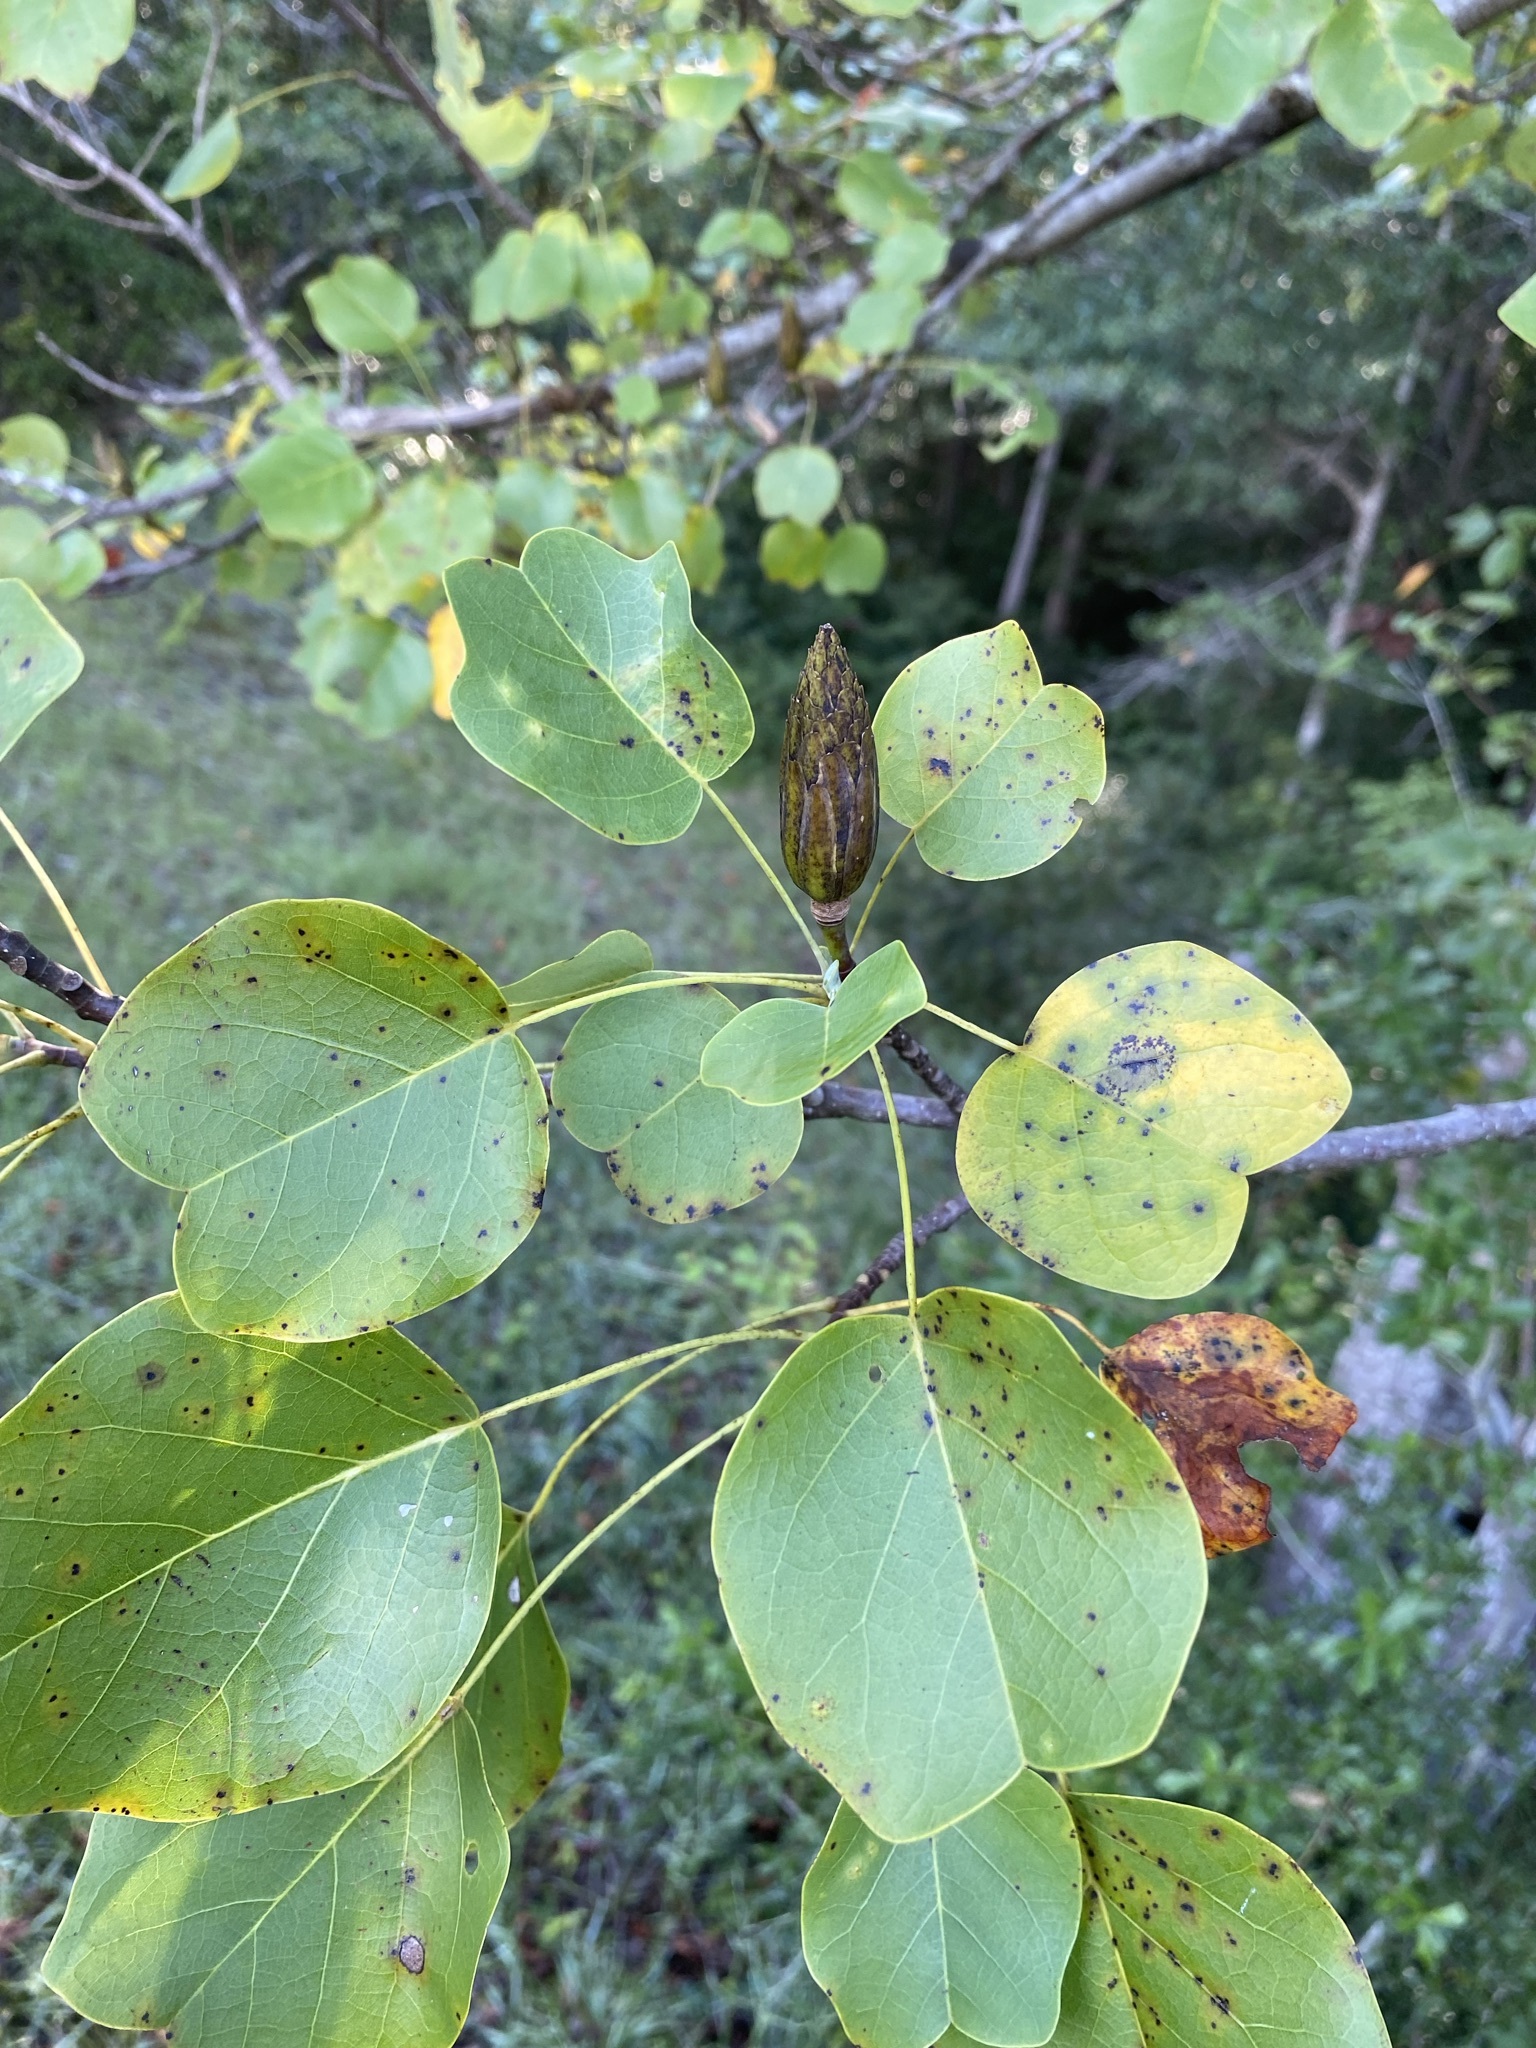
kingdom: Plantae
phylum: Tracheophyta
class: Magnoliopsida
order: Magnoliales
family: Magnoliaceae
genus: Liriodendron
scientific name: Liriodendron tulipifera
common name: Tulip tree
